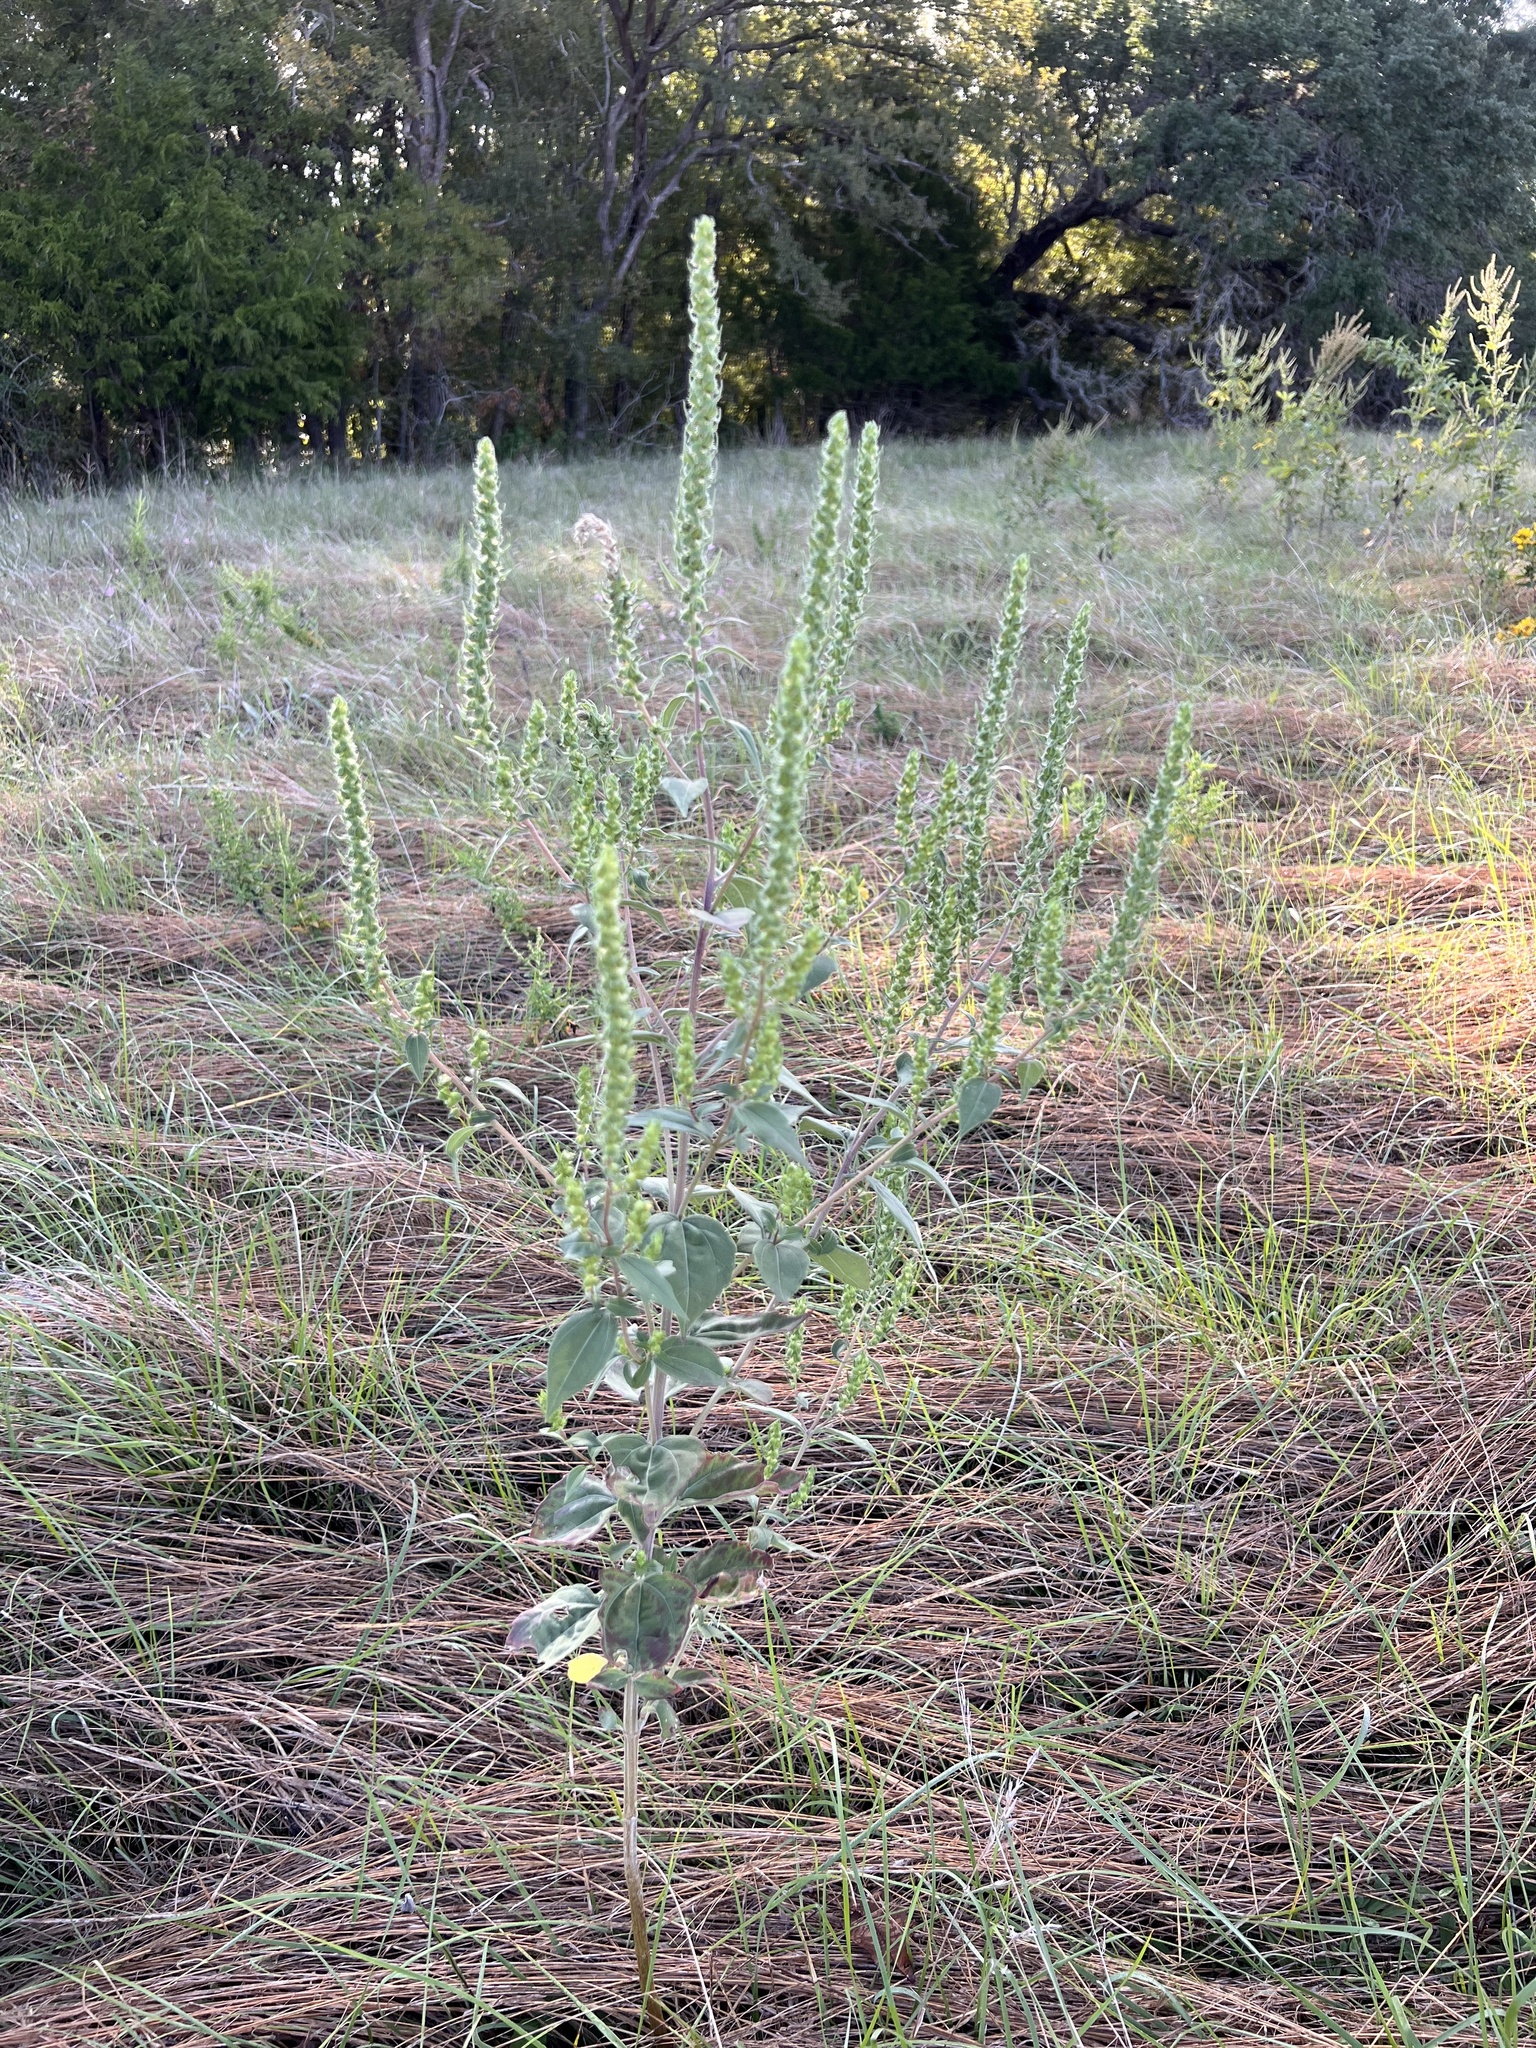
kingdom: Plantae
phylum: Tracheophyta
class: Magnoliopsida
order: Asterales
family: Asteraceae
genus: Iva
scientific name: Iva annua
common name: Marsh-elder
